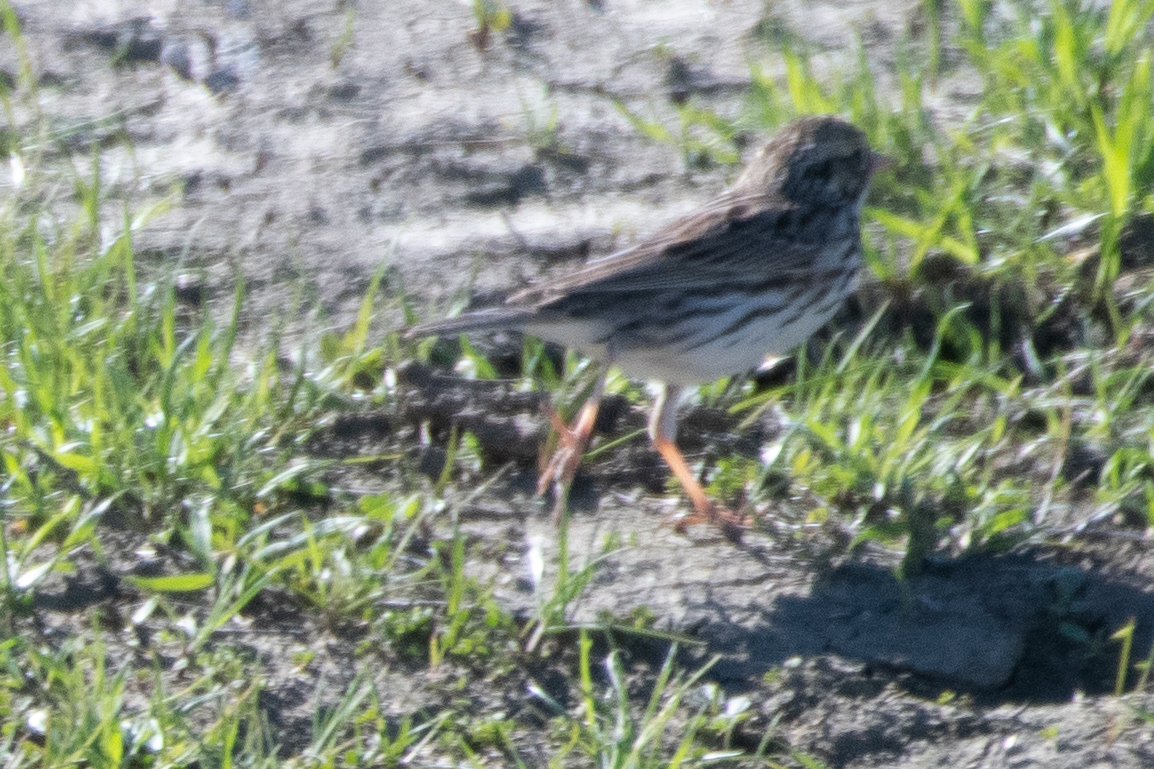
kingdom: Animalia
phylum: Chordata
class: Aves
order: Passeriformes
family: Passerellidae
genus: Passerculus
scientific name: Passerculus sandwichensis
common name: Savannah sparrow
